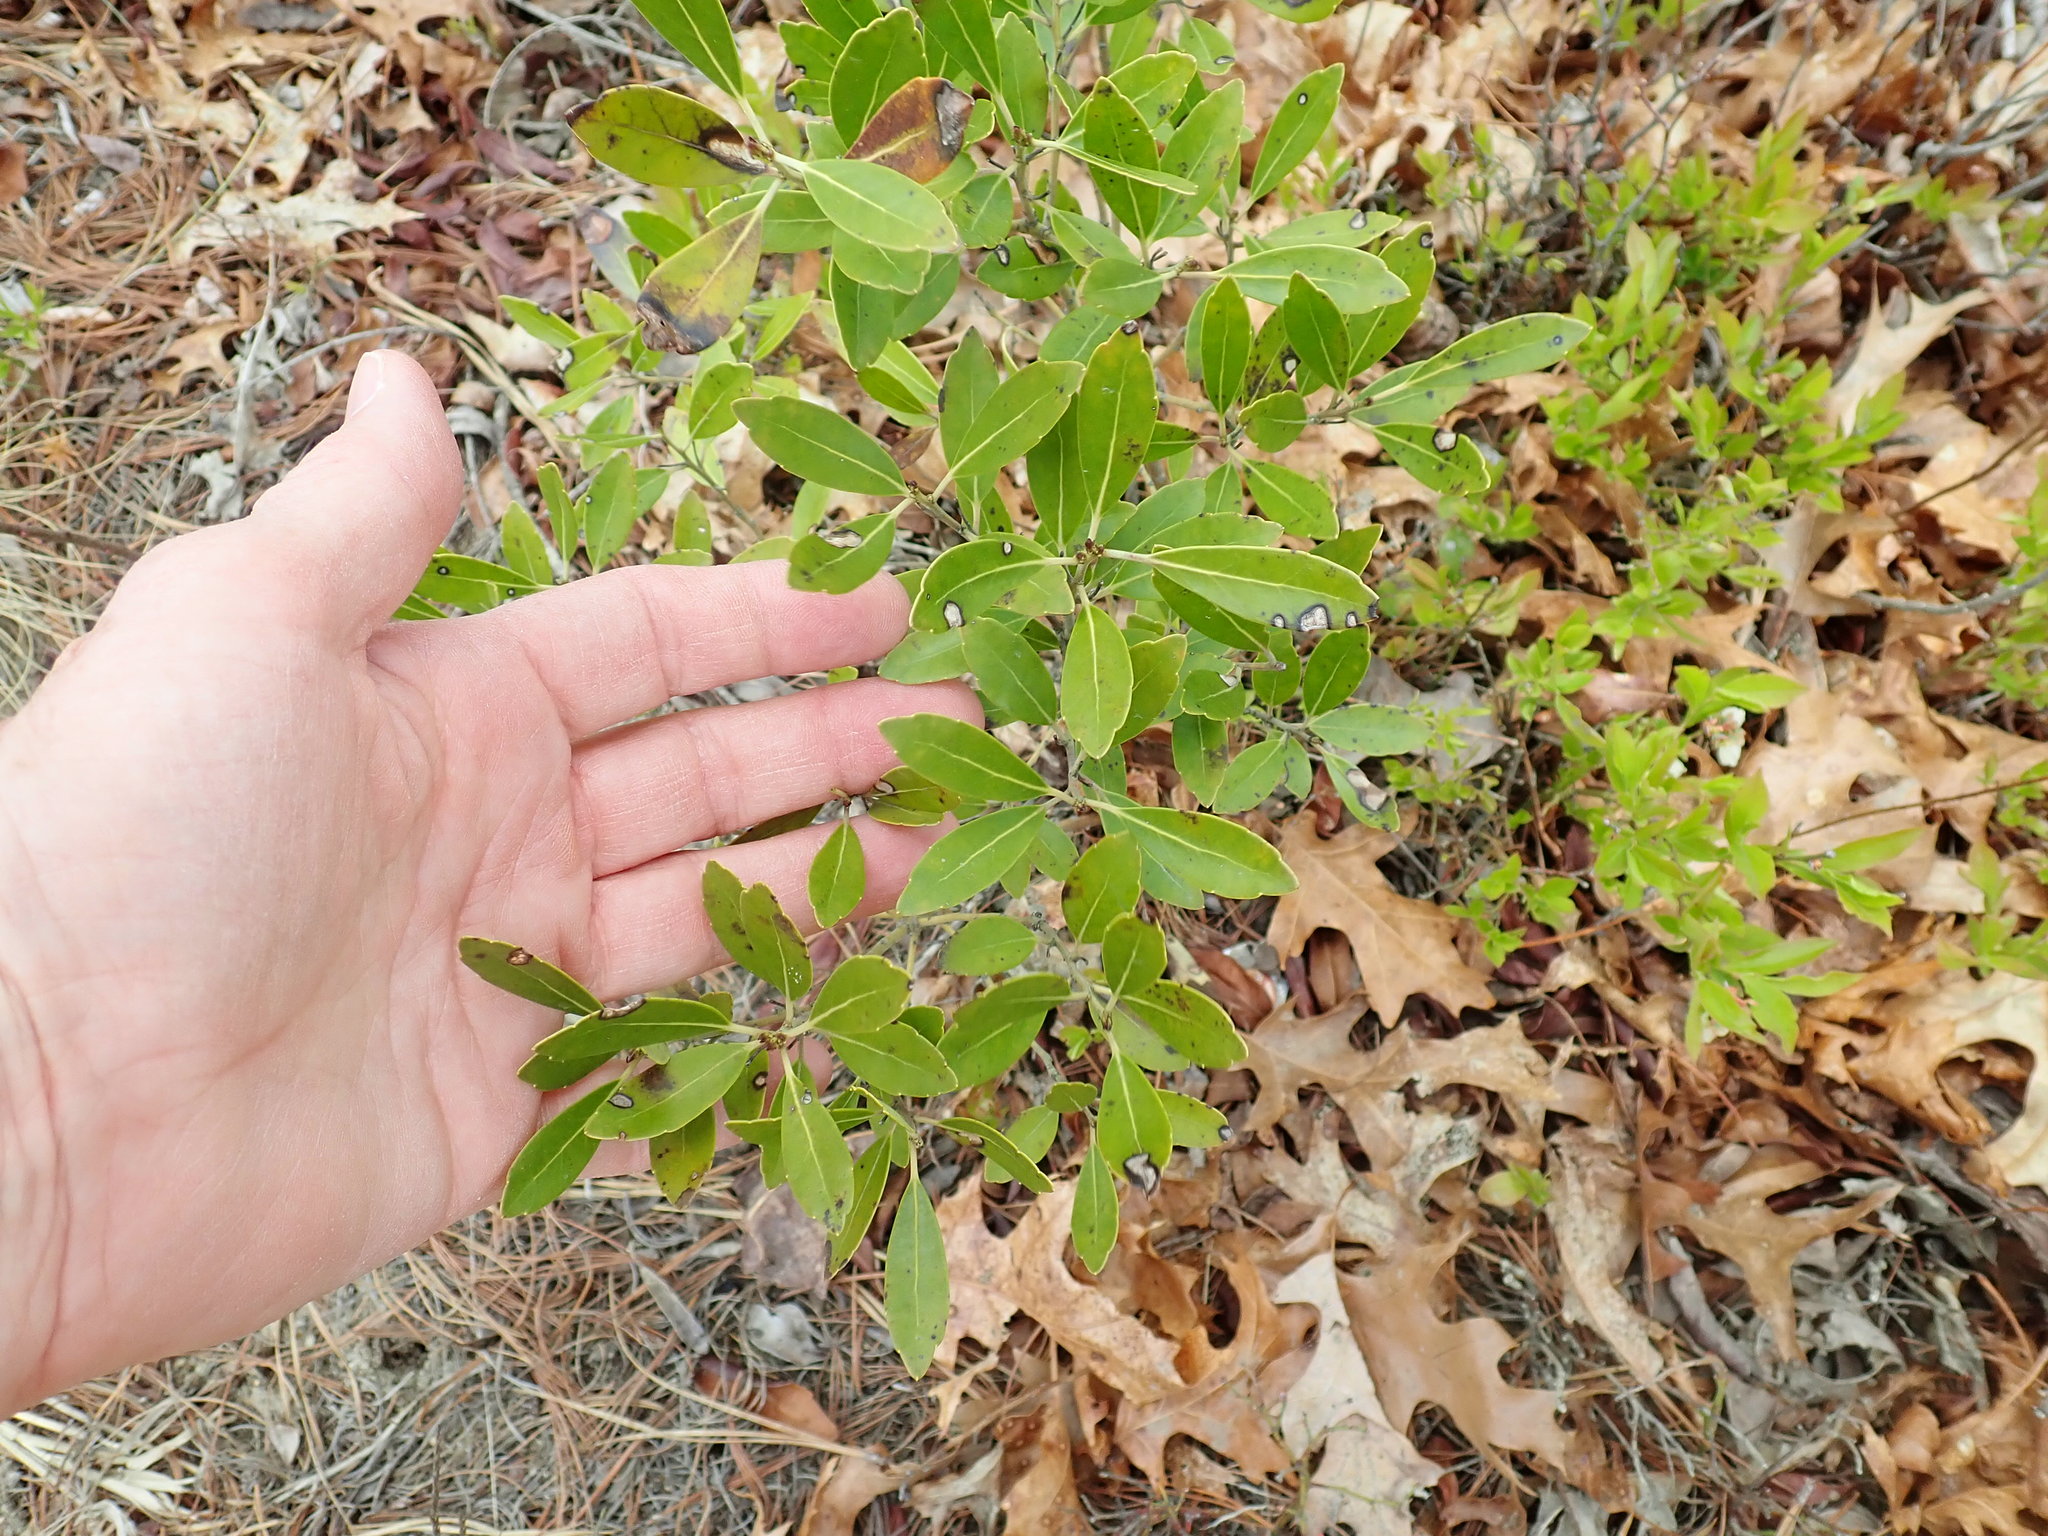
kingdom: Plantae
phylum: Tracheophyta
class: Magnoliopsida
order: Aquifoliales
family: Aquifoliaceae
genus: Ilex
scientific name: Ilex glabra
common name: Bitter gallberry
